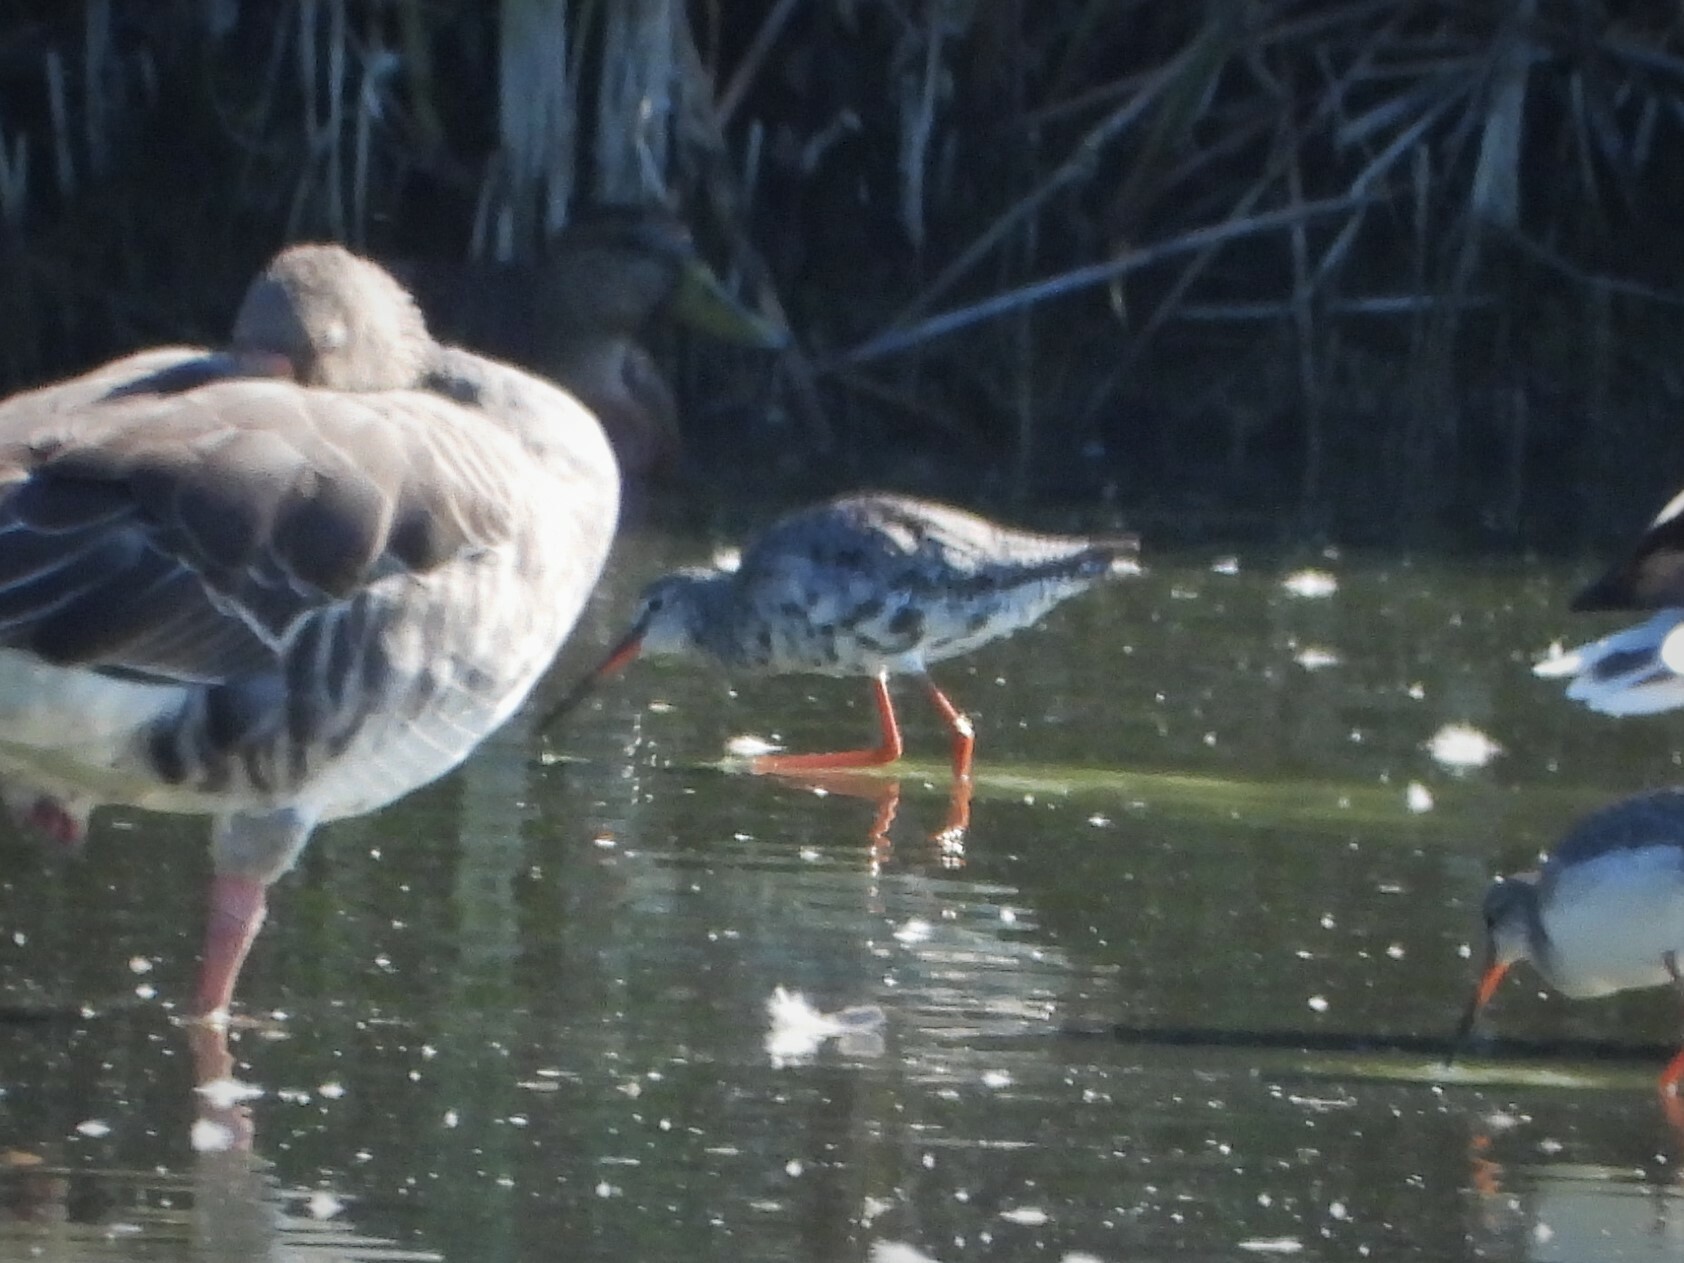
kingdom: Animalia
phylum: Chordata
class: Aves
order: Charadriiformes
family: Scolopacidae
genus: Tringa
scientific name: Tringa erythropus
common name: Spotted redshank
